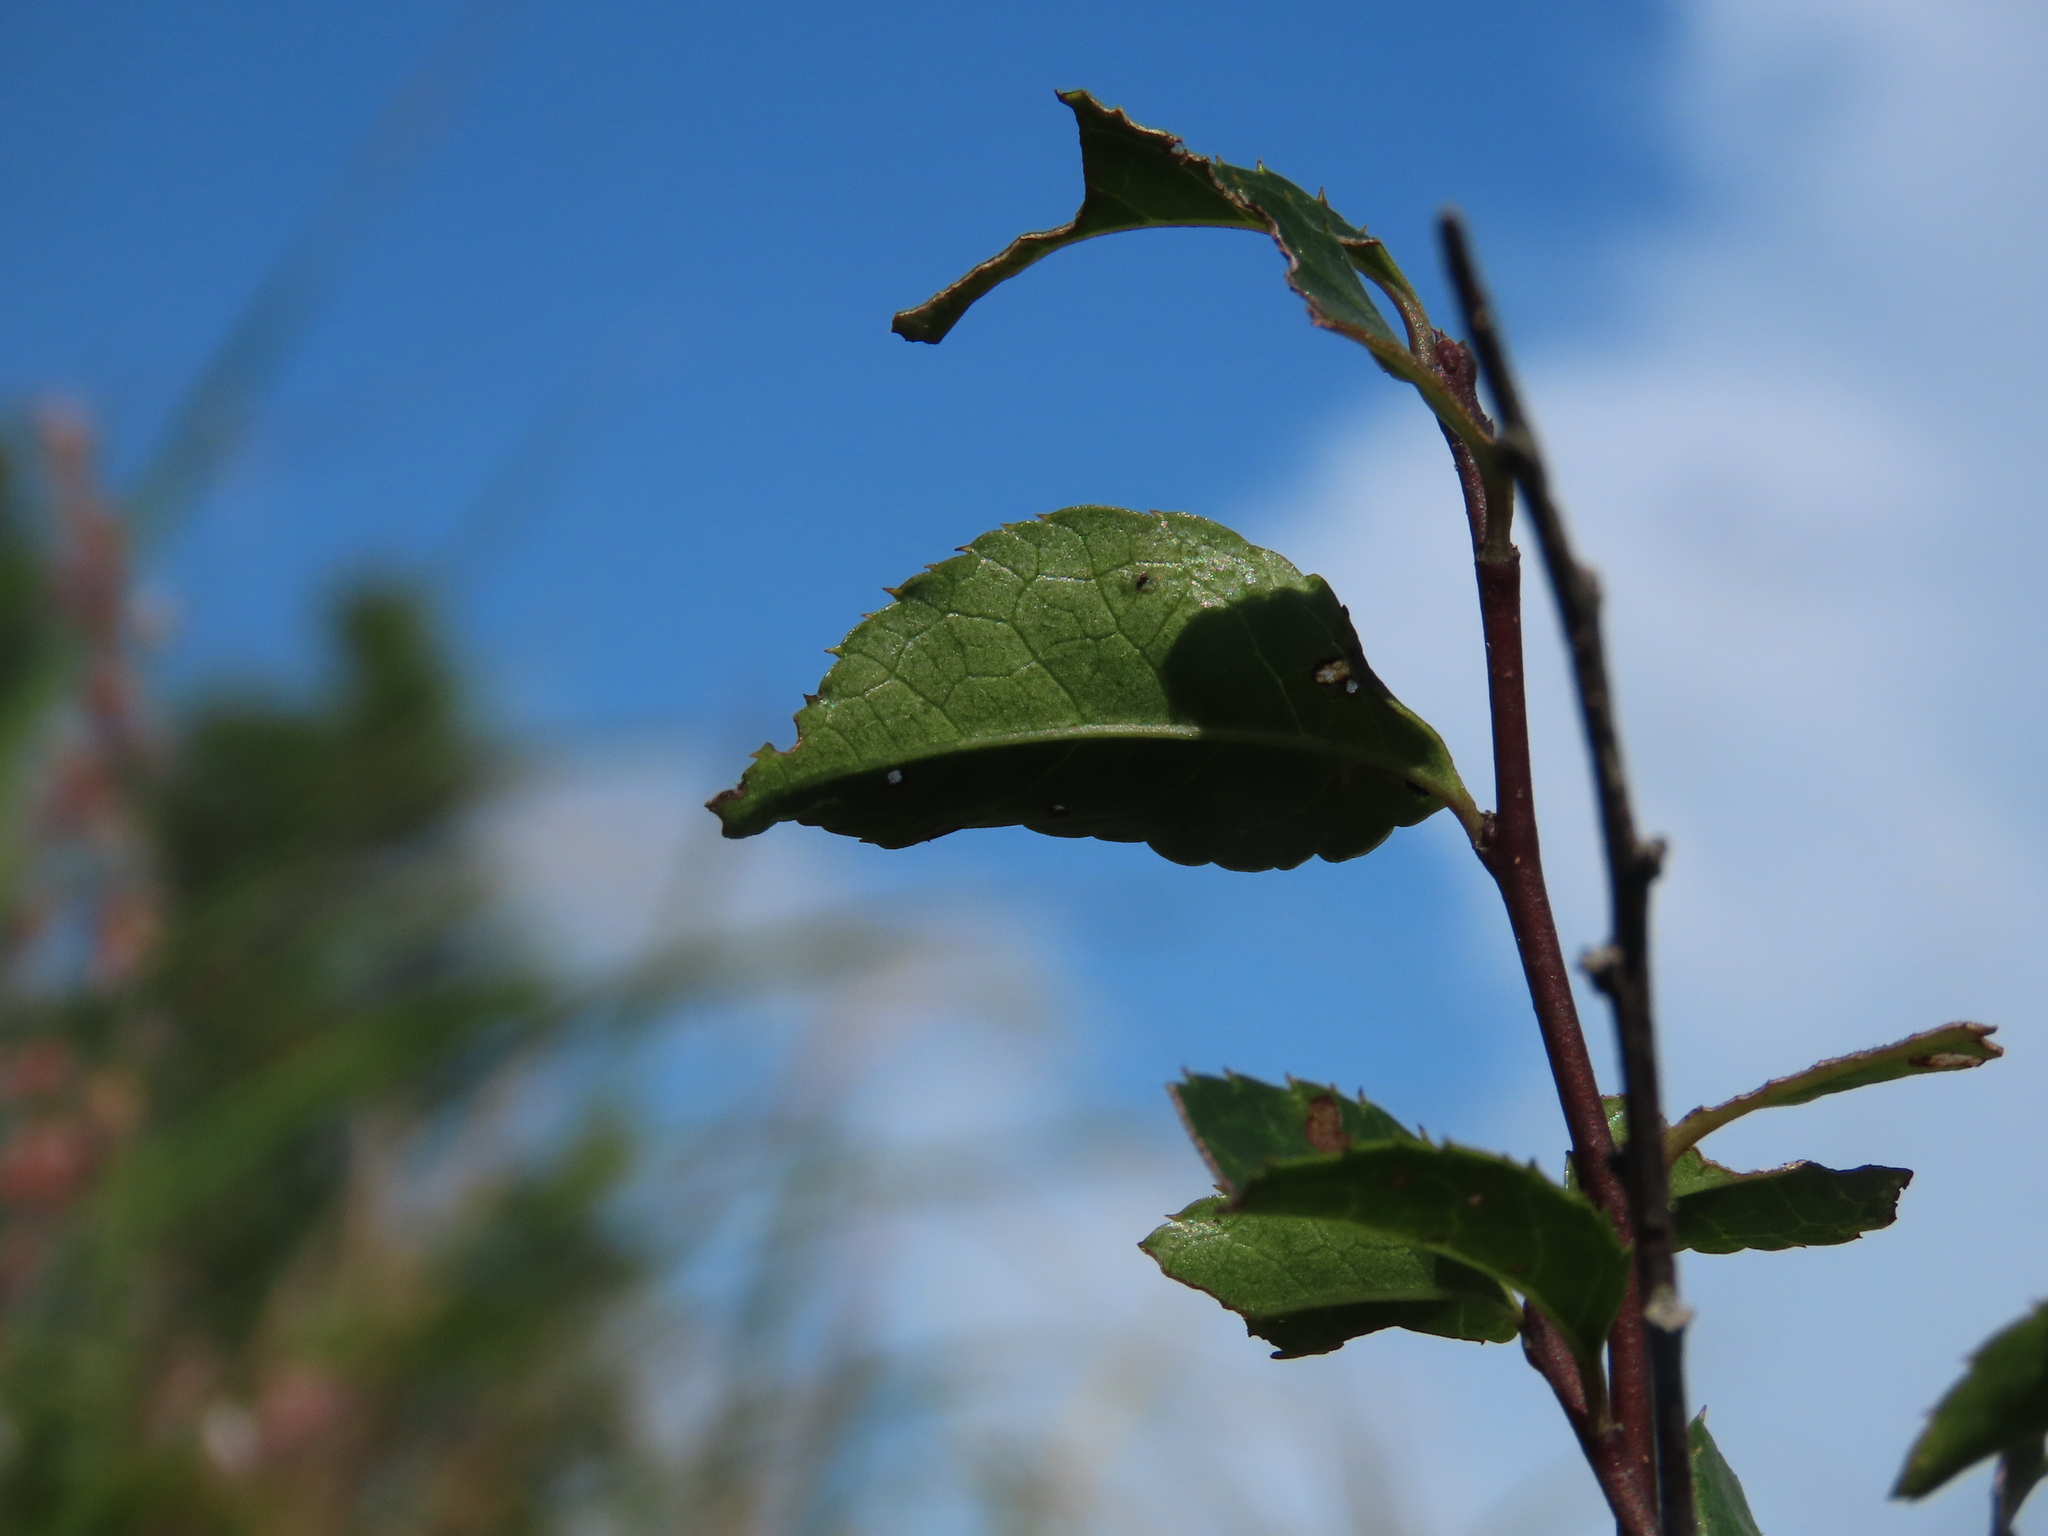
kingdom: Plantae
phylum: Tracheophyta
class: Magnoliopsida
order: Aquifoliales
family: Aquifoliaceae
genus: Ilex
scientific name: Ilex asprella
